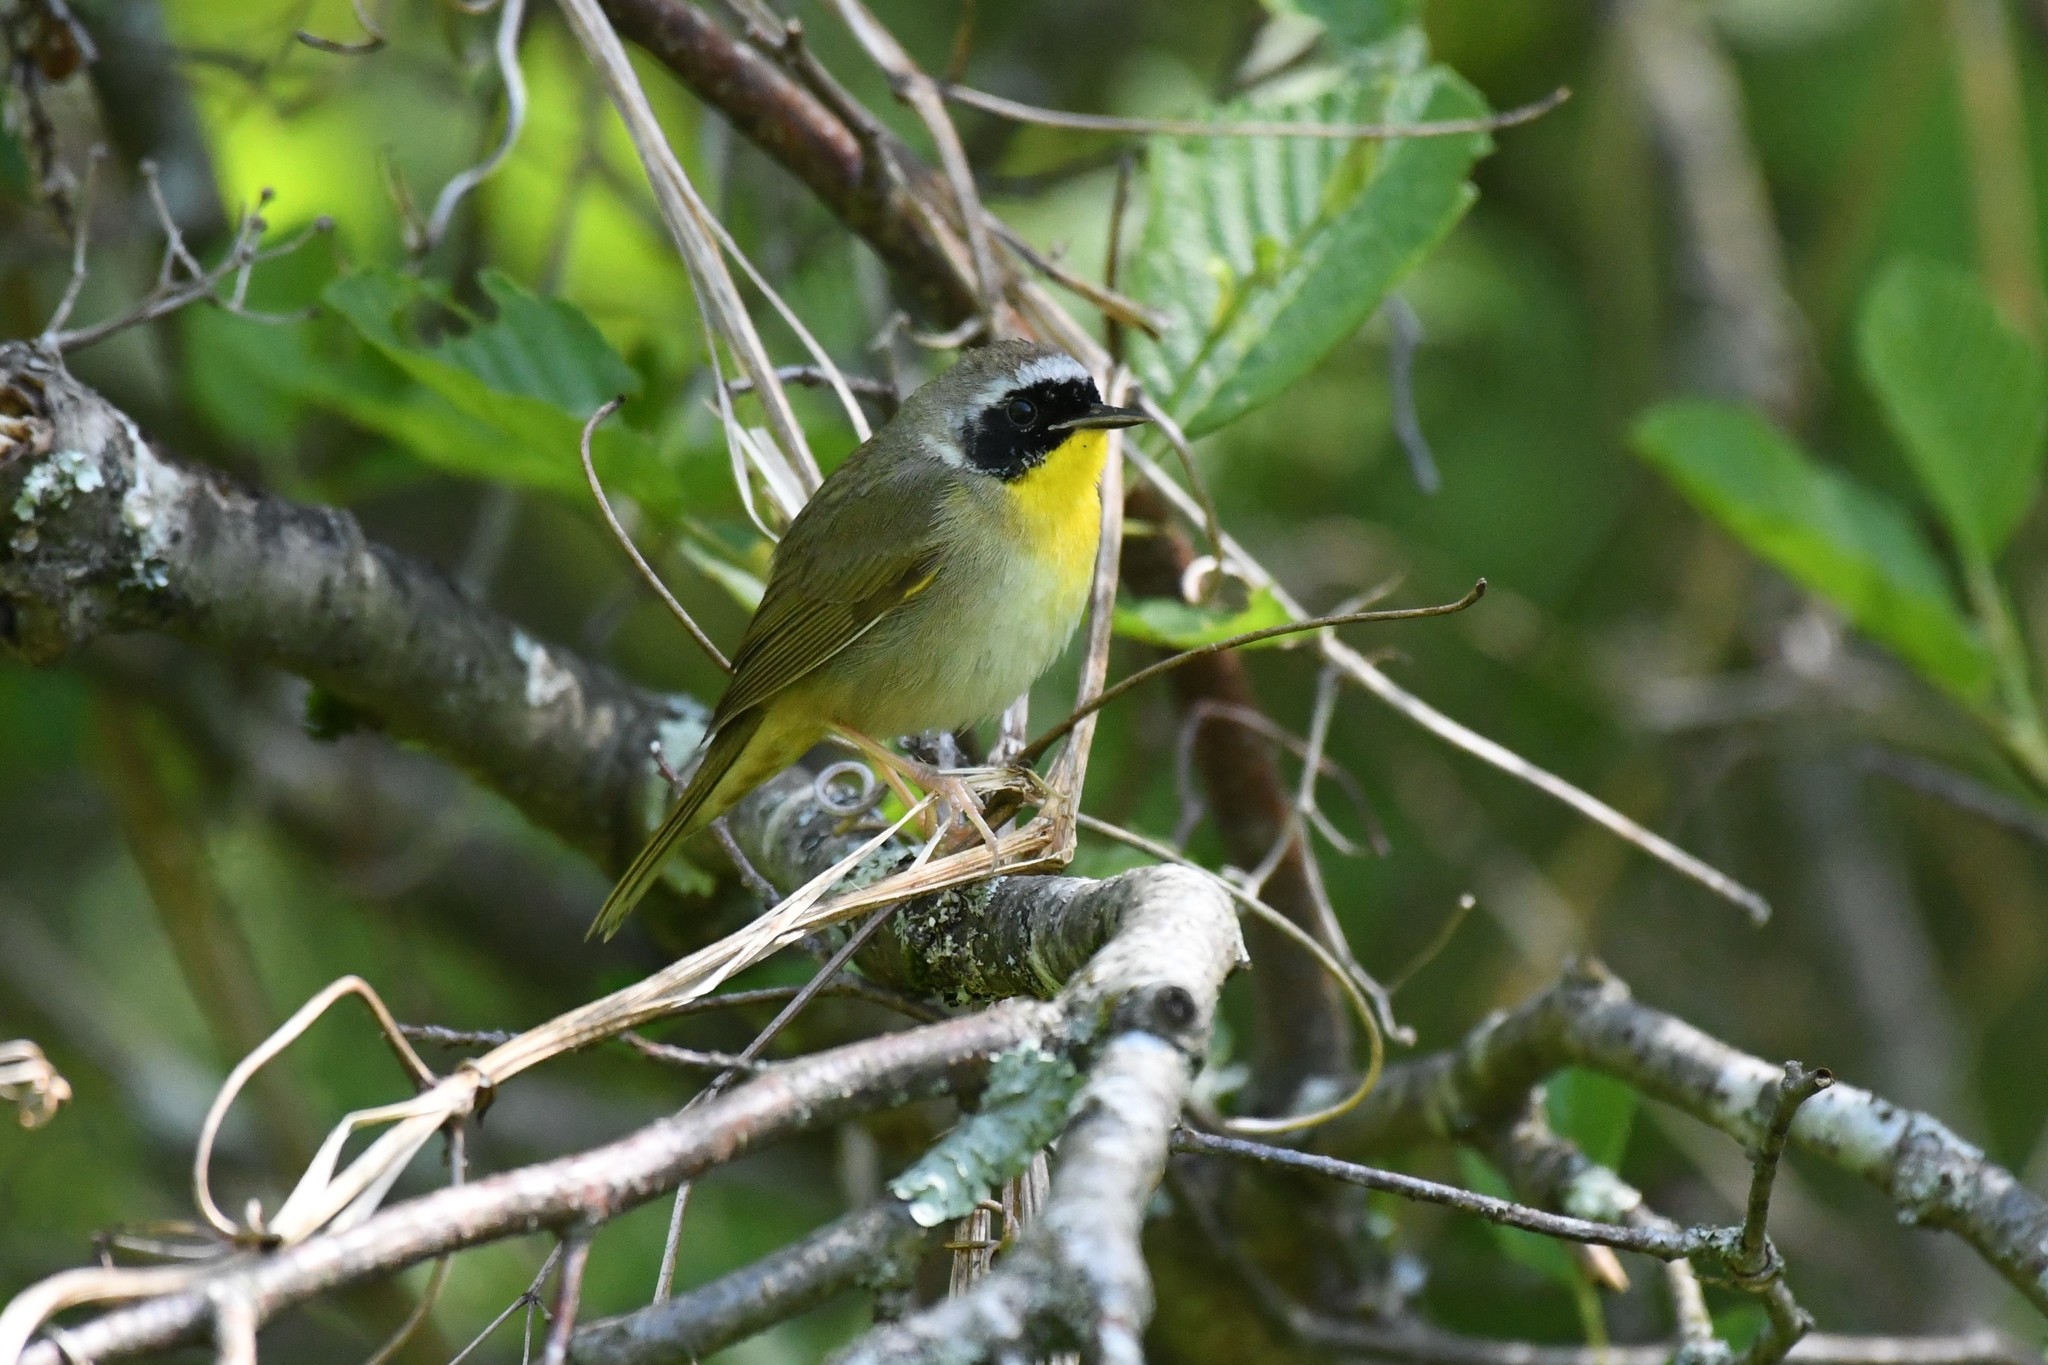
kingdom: Animalia
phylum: Chordata
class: Aves
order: Passeriformes
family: Parulidae
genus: Geothlypis
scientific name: Geothlypis trichas
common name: Common yellowthroat
